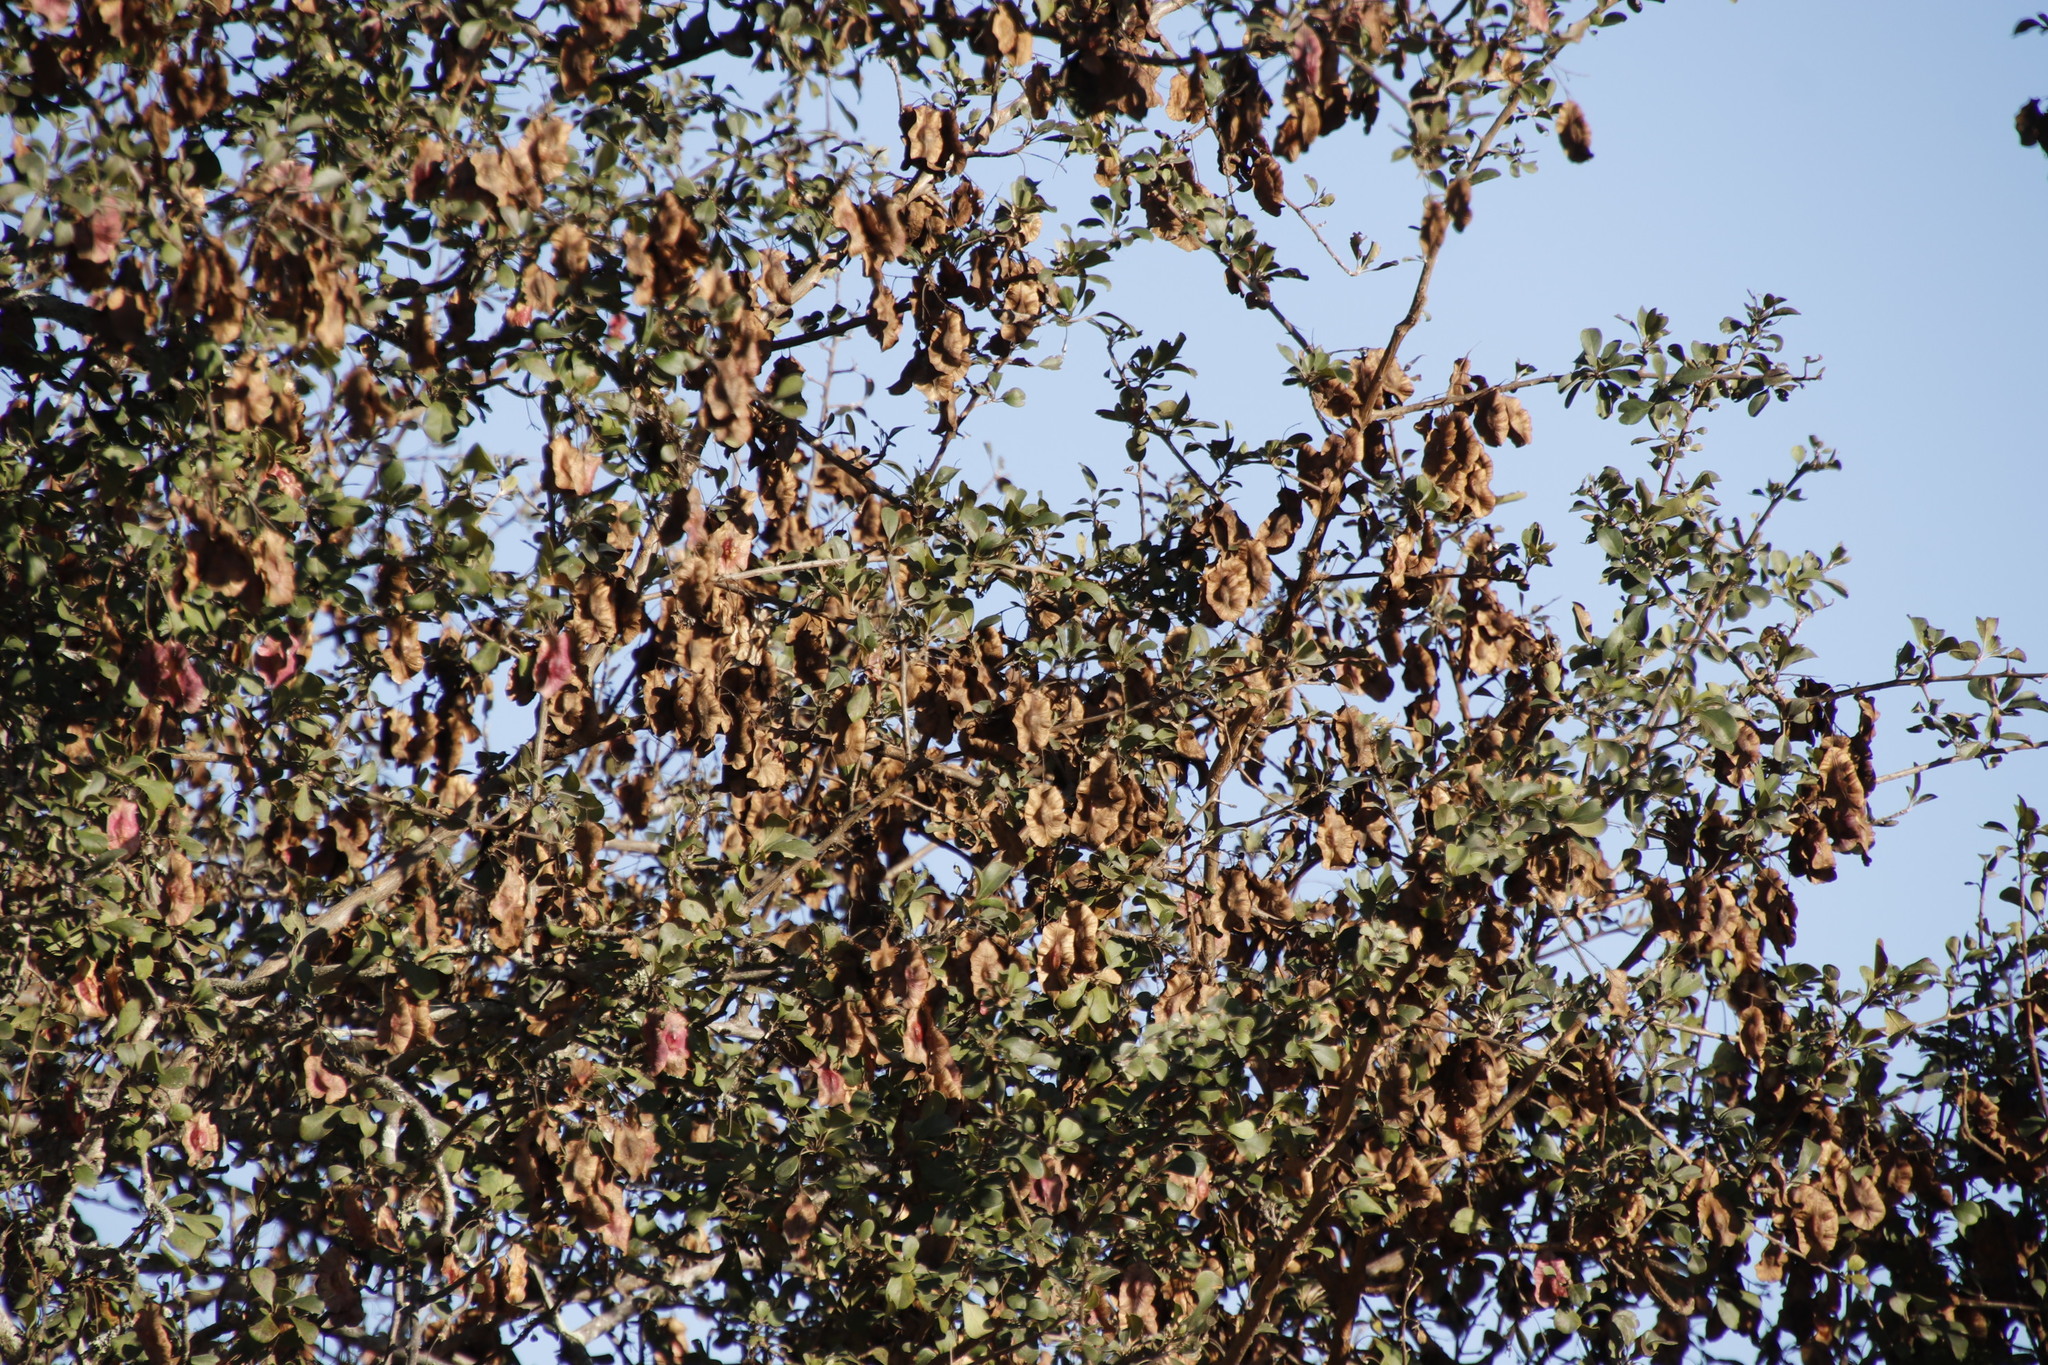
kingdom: Plantae
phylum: Tracheophyta
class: Magnoliopsida
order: Myrtales
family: Combretaceae
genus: Terminalia
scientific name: Terminalia prunioides
